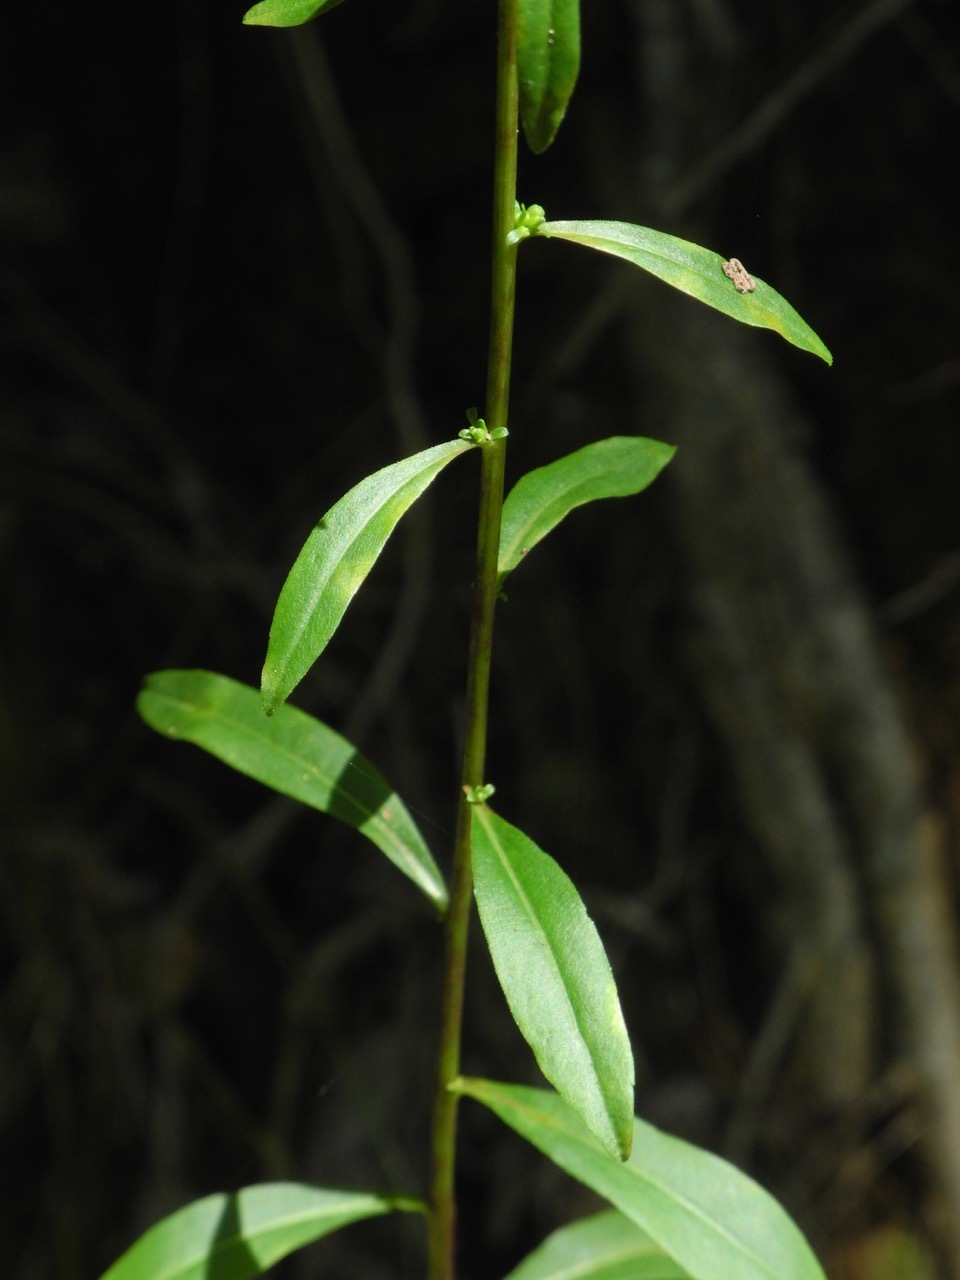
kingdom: Plantae
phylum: Tracheophyta
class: Magnoliopsida
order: Asterales
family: Asteraceae
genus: Solidago
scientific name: Solidago erecta
